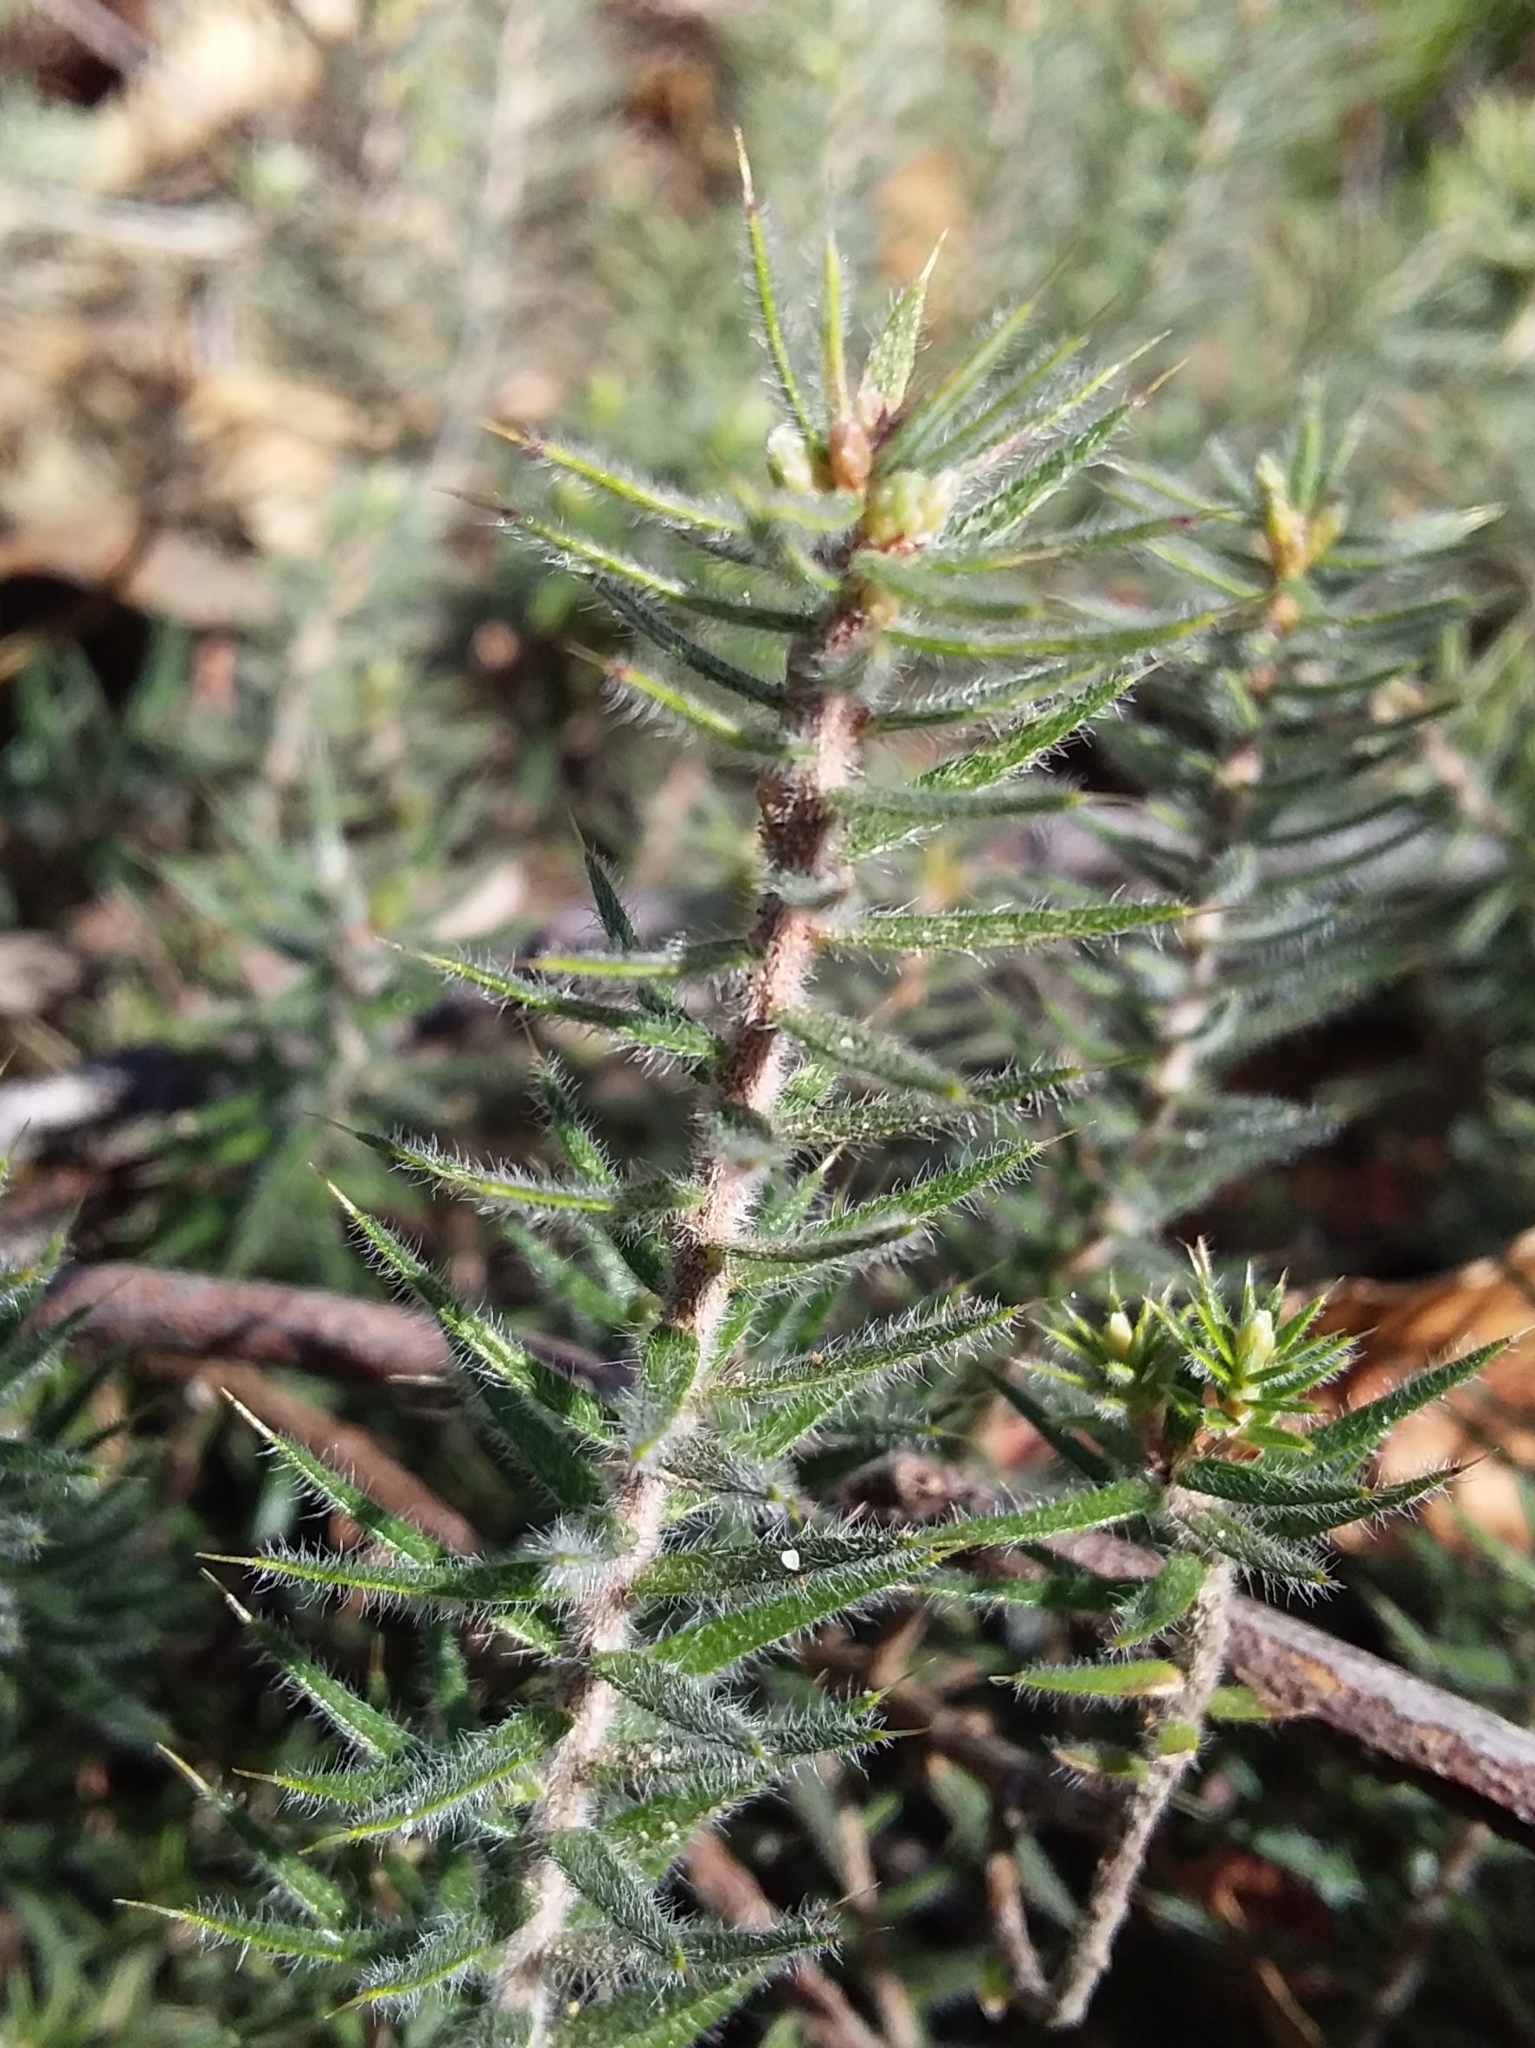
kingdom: Plantae
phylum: Tracheophyta
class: Magnoliopsida
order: Ericales
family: Ericaceae
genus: Acrotriche
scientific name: Acrotriche serrulata
